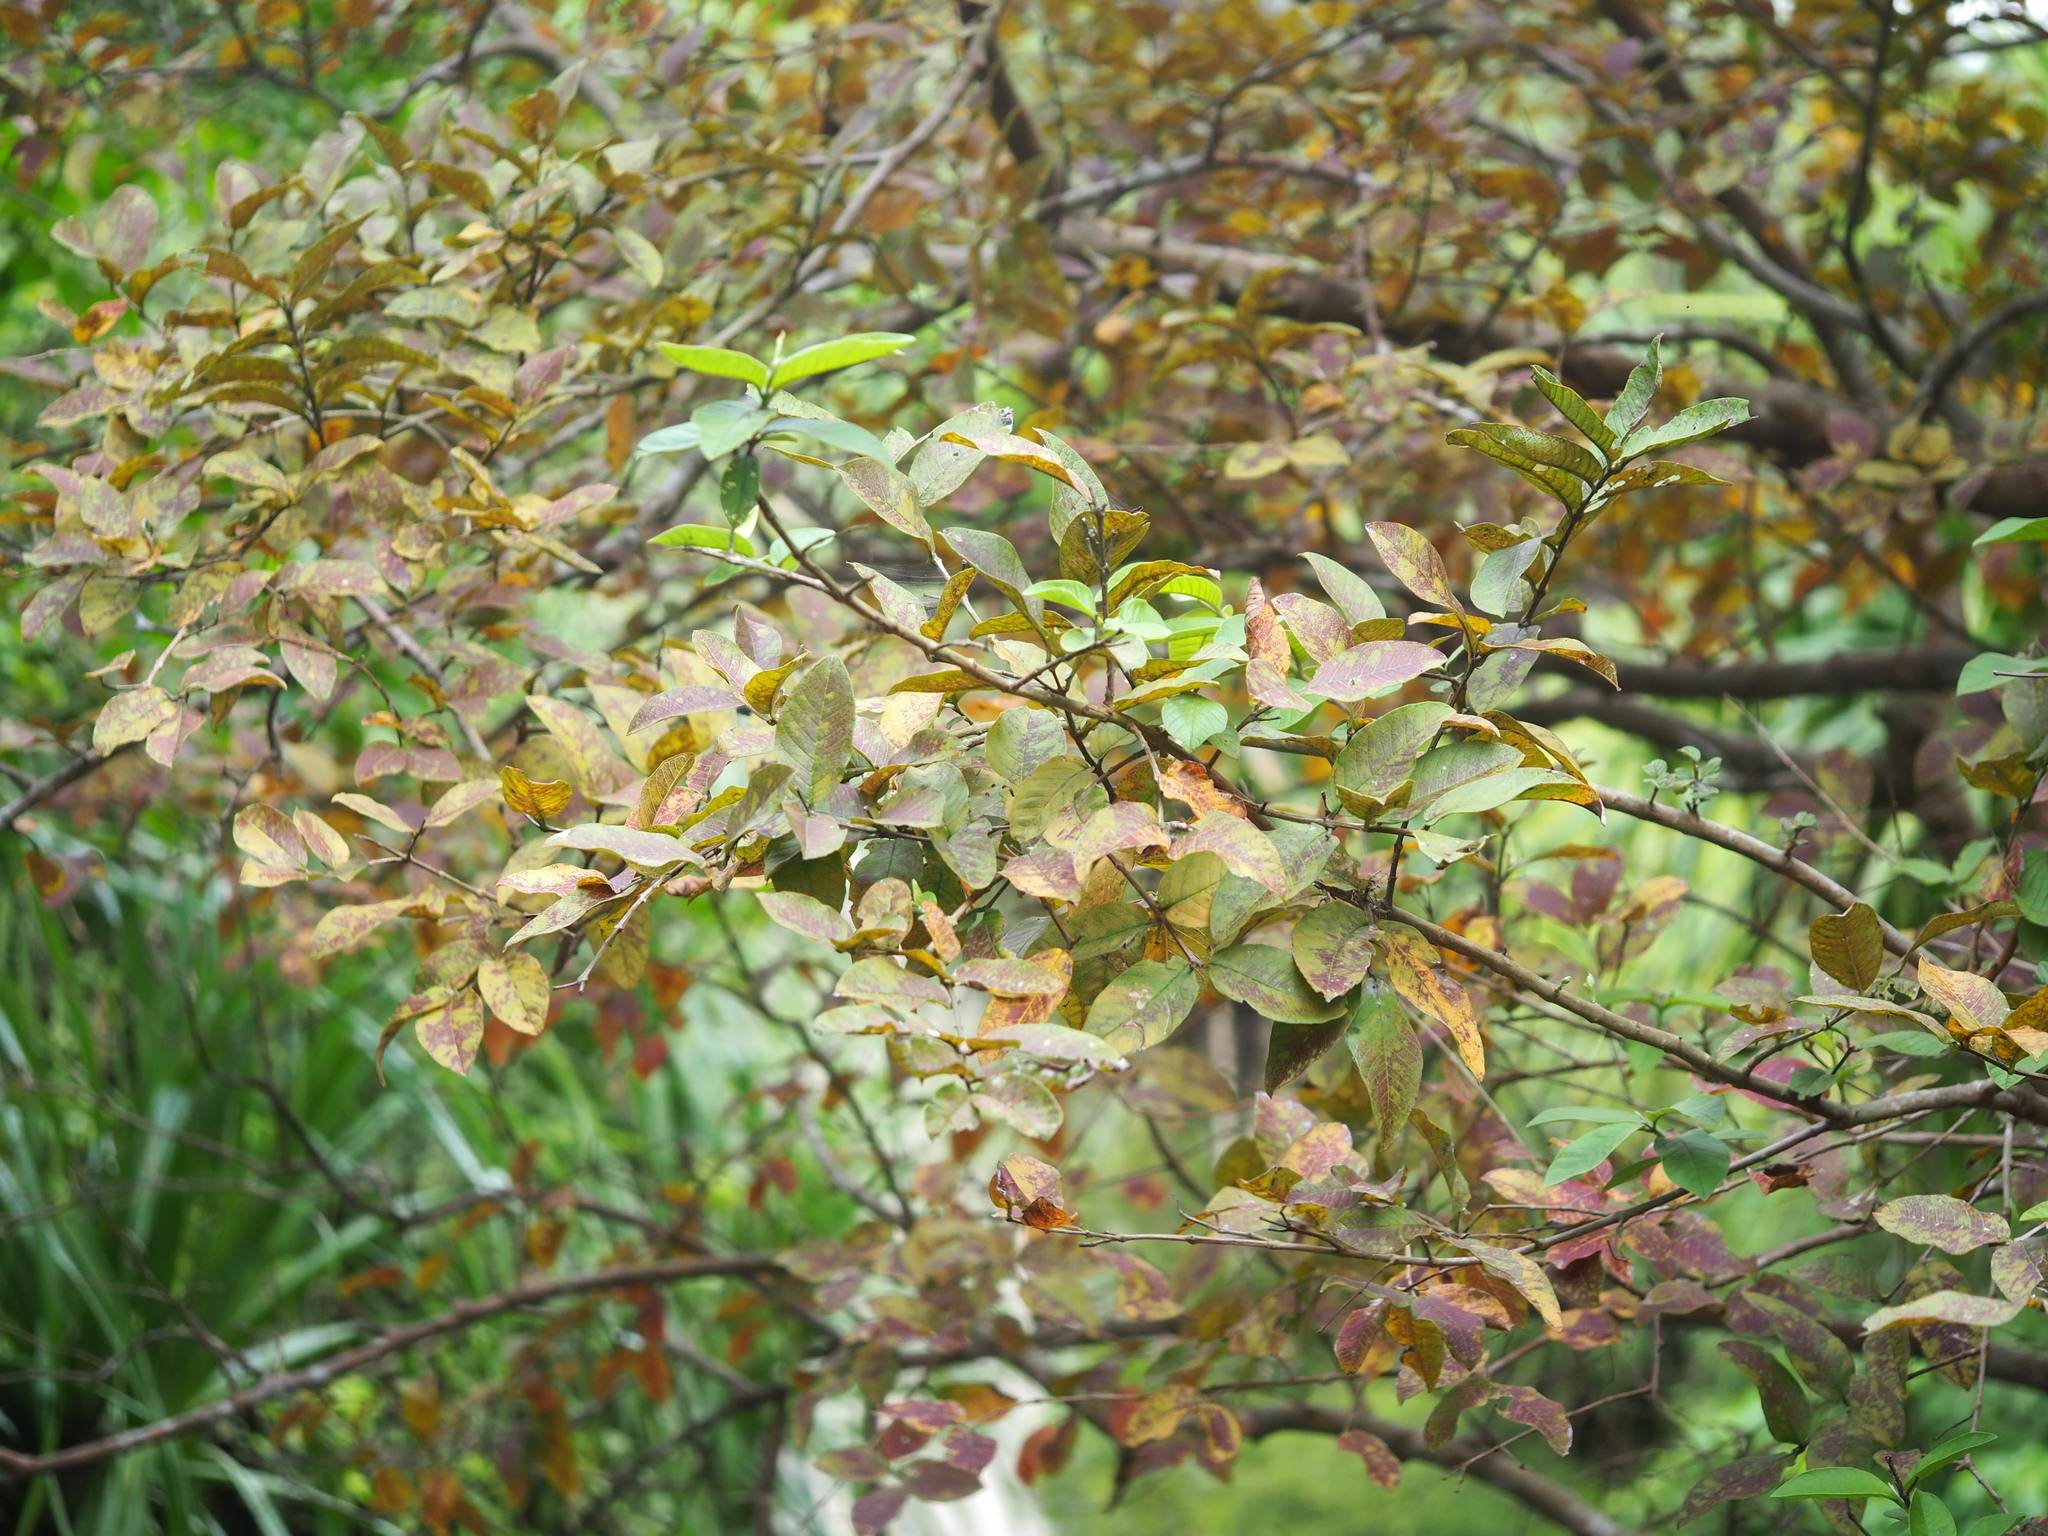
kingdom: Plantae
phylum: Tracheophyta
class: Magnoliopsida
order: Myrtales
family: Myrtaceae
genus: Psidium
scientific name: Psidium guajava
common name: Guava
